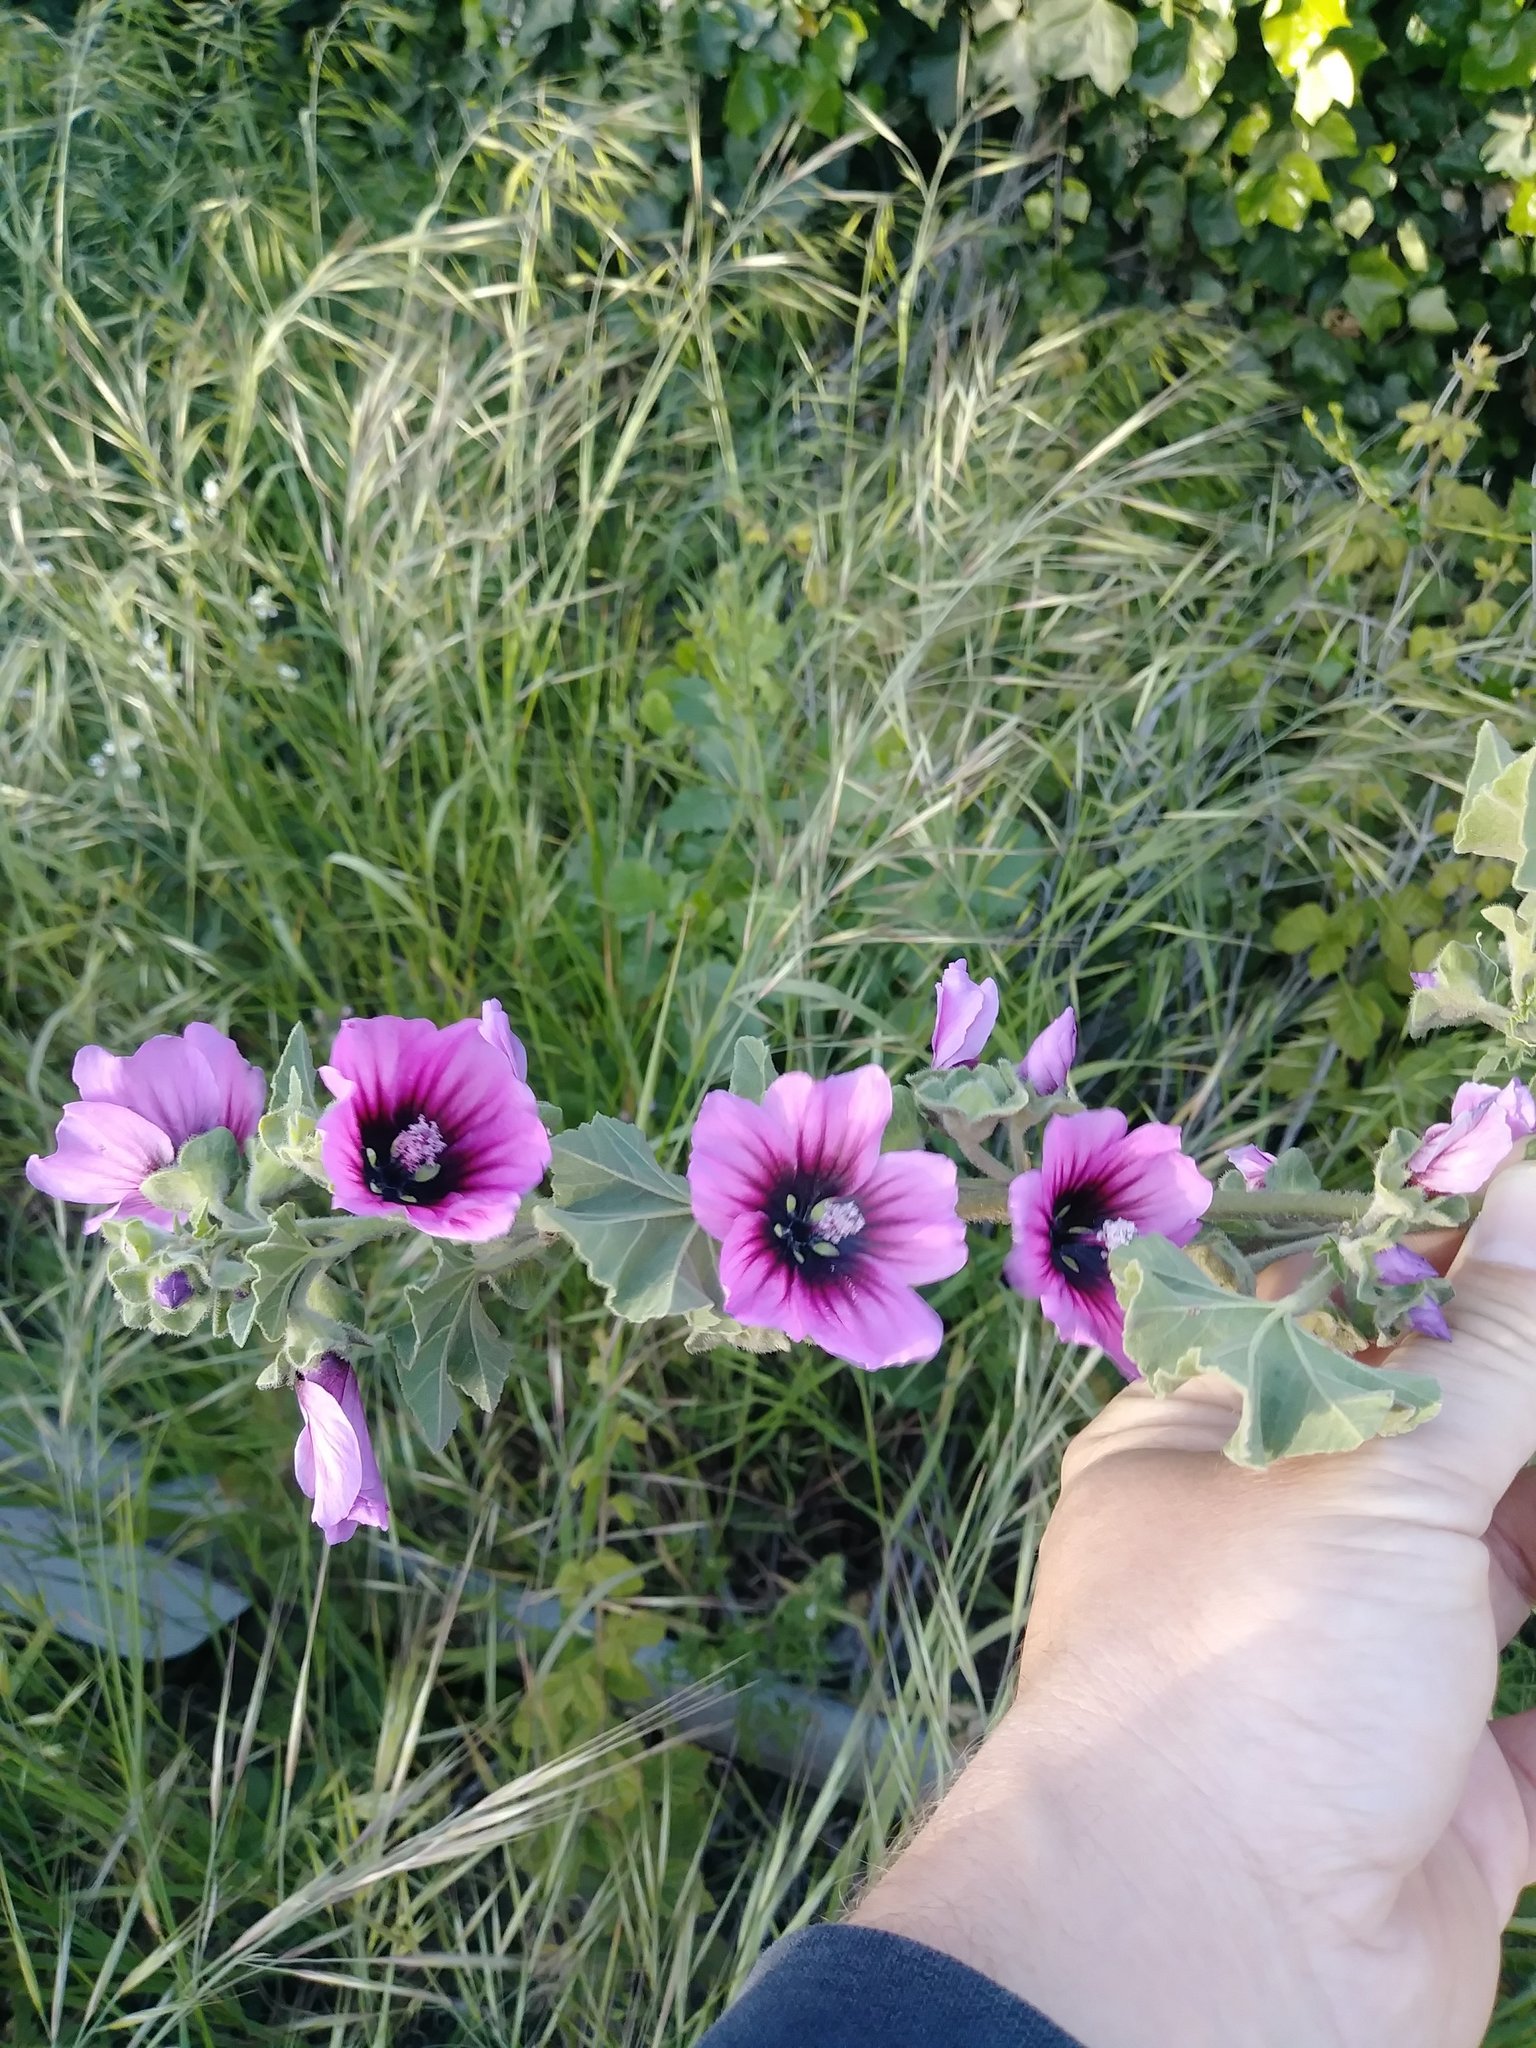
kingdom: Plantae
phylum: Tracheophyta
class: Magnoliopsida
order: Malvales
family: Malvaceae
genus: Malva
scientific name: Malva arborea
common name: Tree mallow
